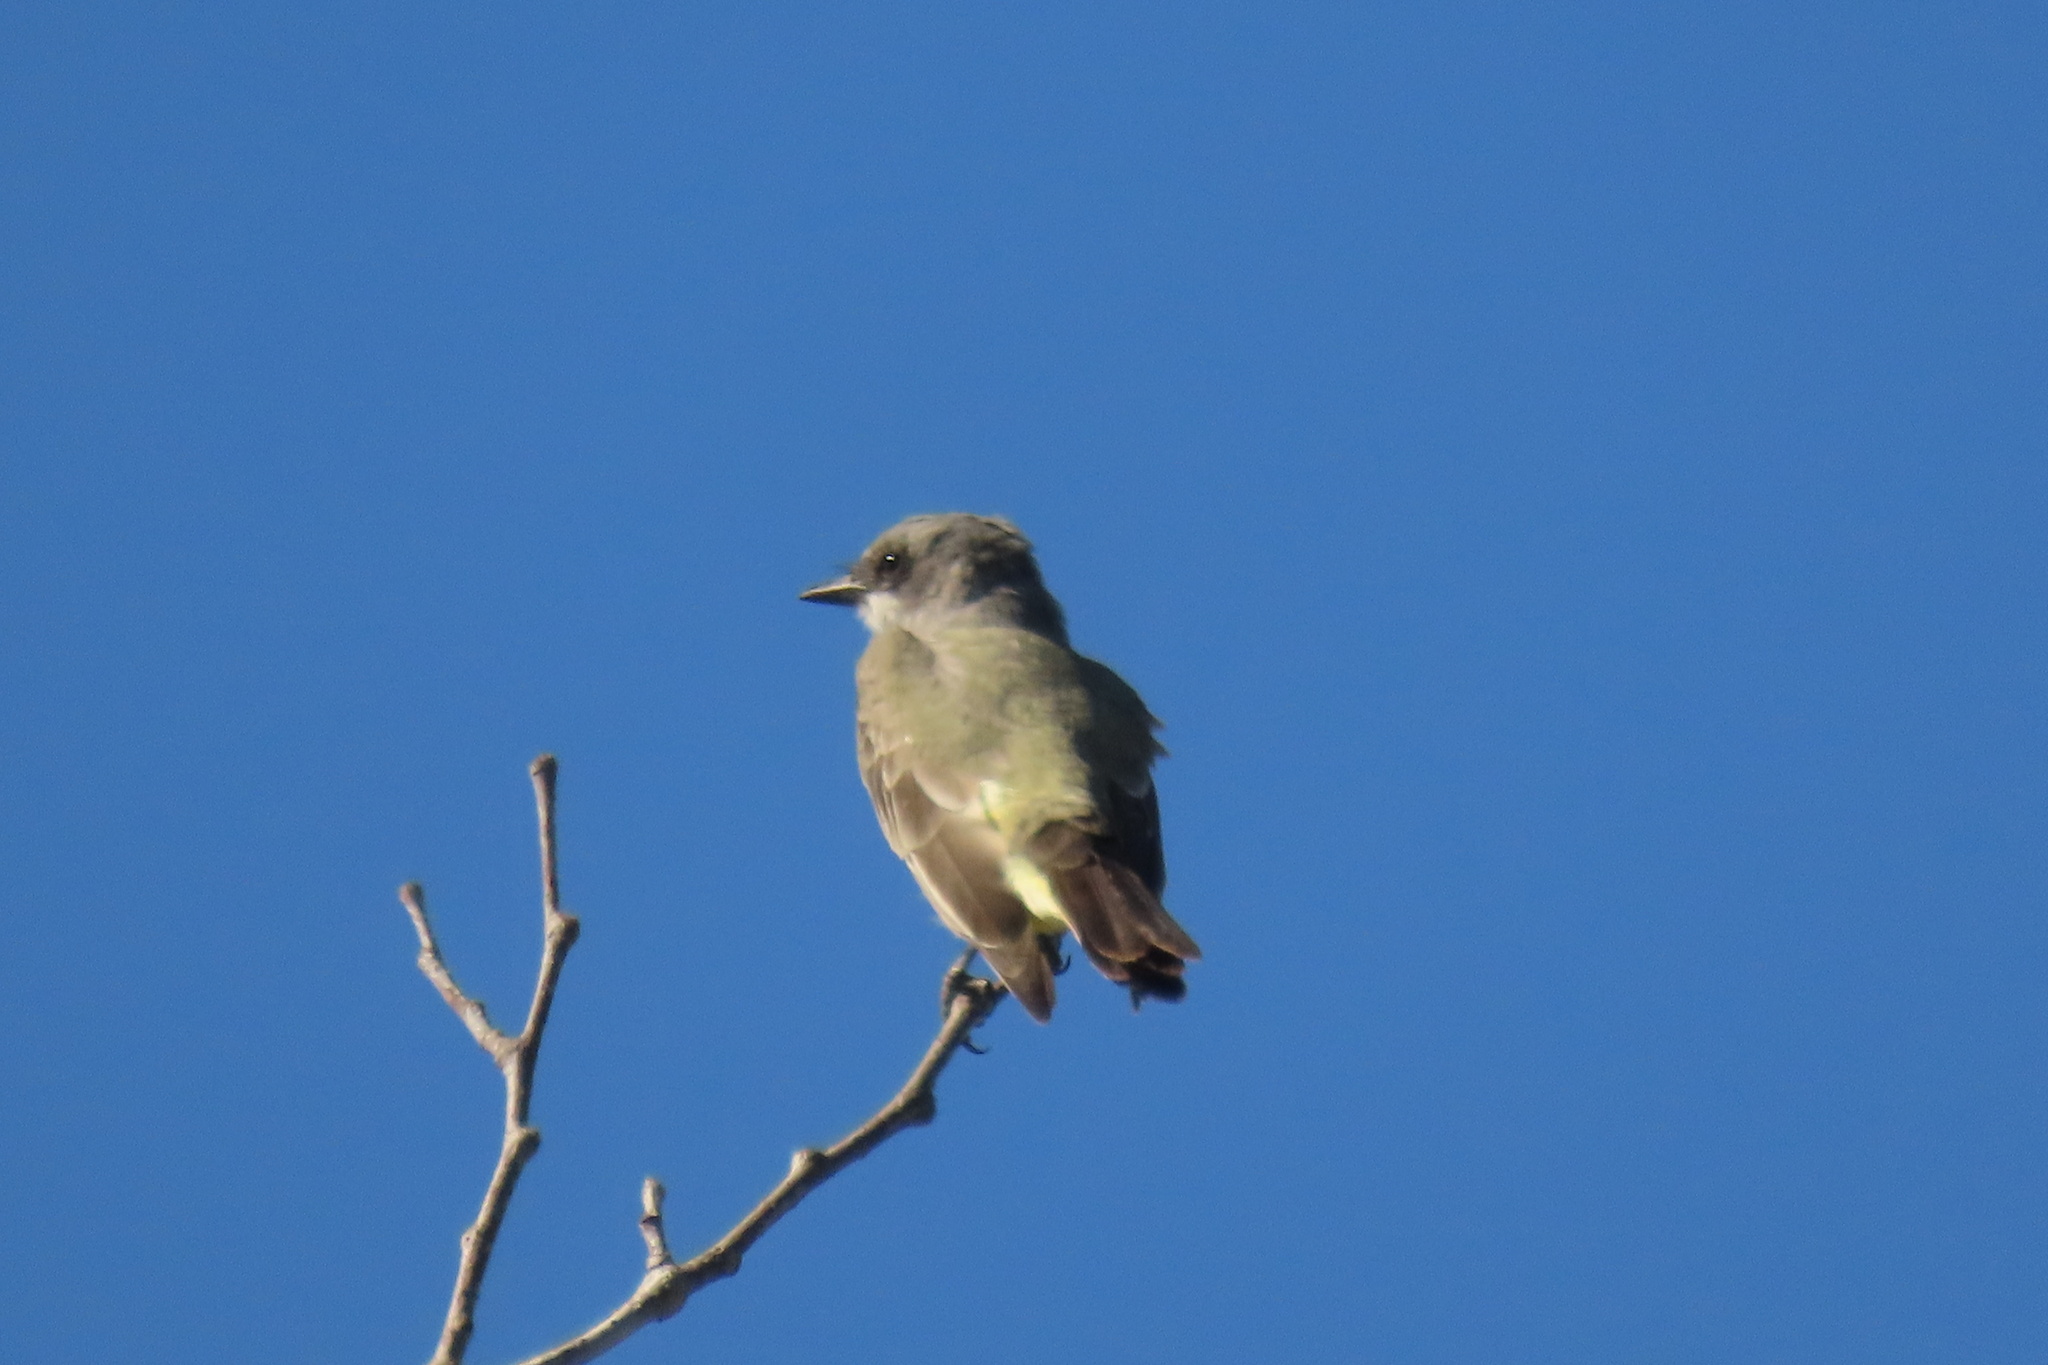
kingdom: Animalia
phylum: Chordata
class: Aves
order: Passeriformes
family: Tyrannidae
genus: Tyrannus
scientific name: Tyrannus vociferans
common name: Cassin's kingbird
